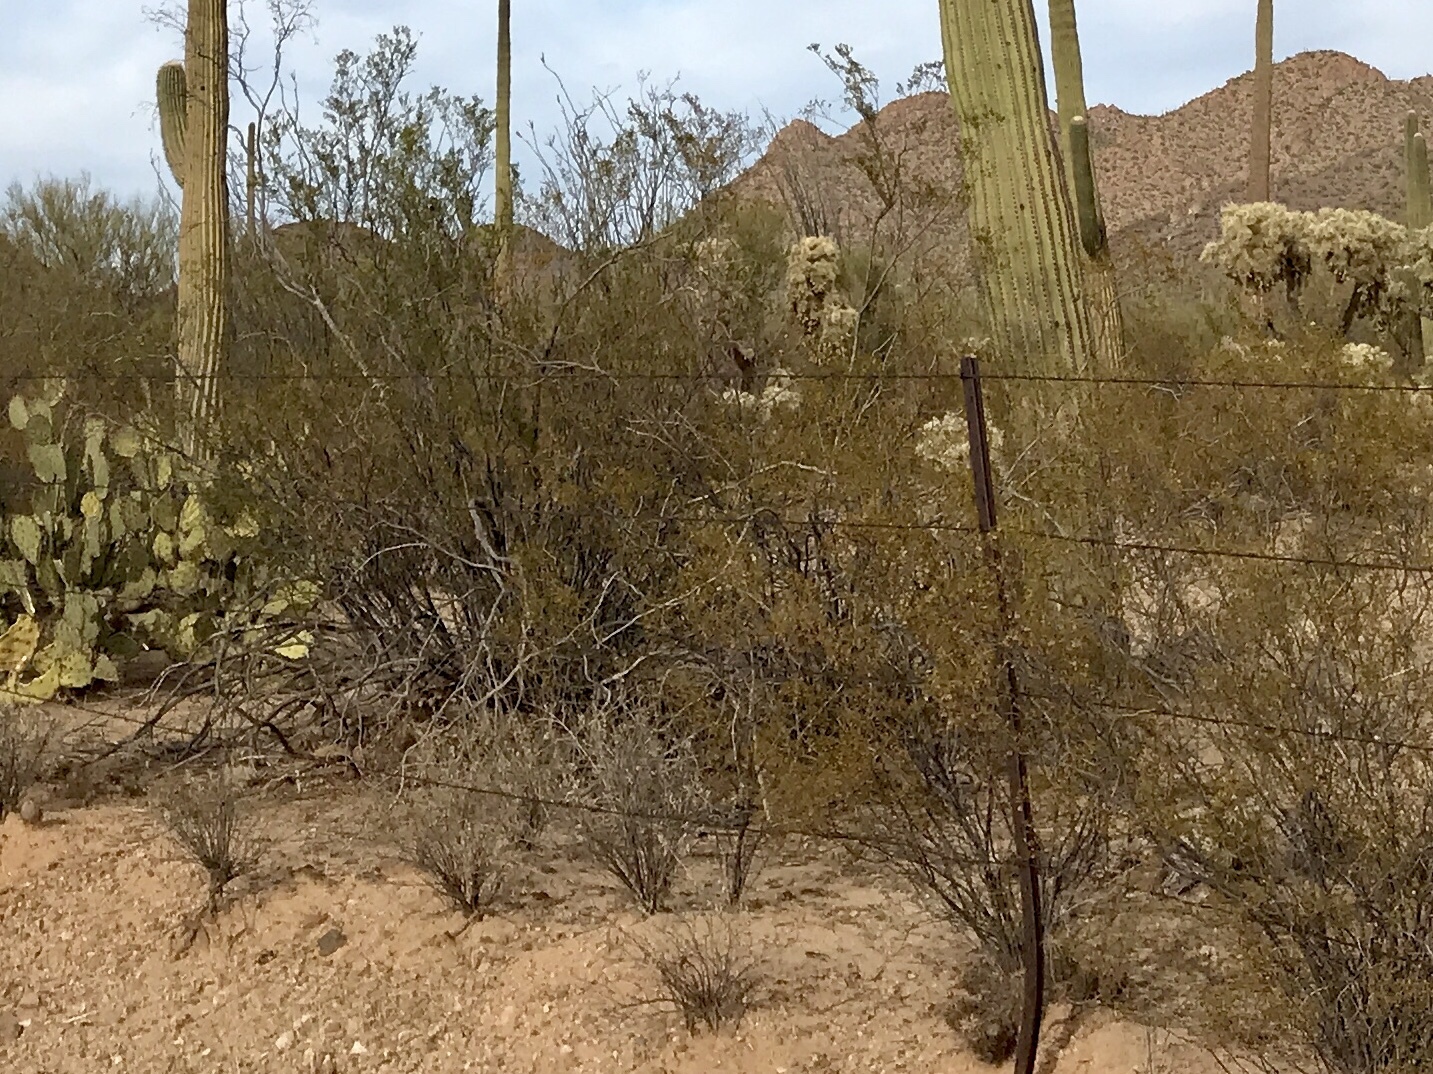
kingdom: Plantae
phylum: Tracheophyta
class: Magnoliopsida
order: Zygophyllales
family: Zygophyllaceae
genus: Larrea
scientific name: Larrea tridentata
